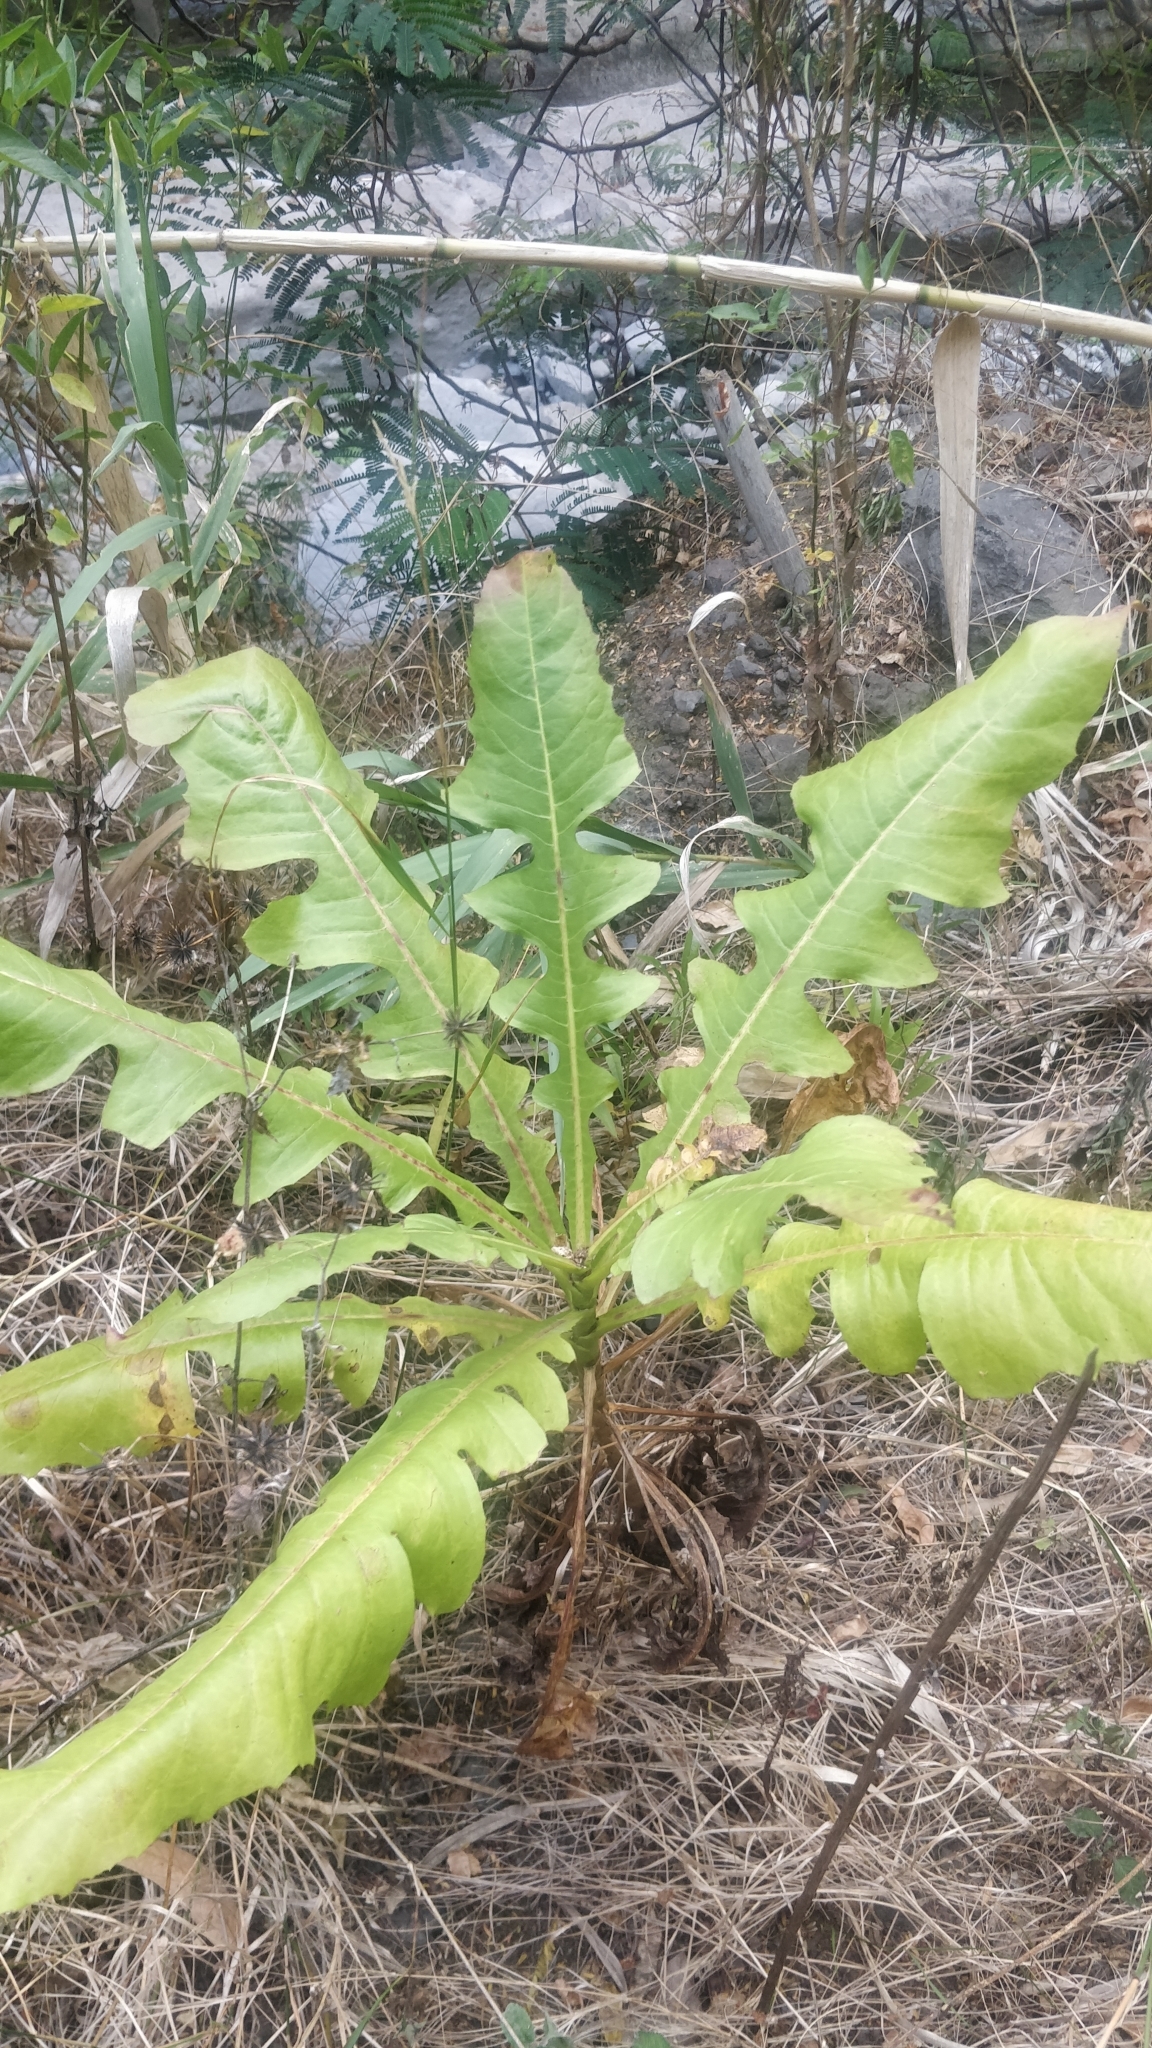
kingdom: Plantae
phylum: Tracheophyta
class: Magnoliopsida
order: Asterales
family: Asteraceae
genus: Sonchus
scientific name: Sonchus fruticosus
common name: Shrubby sow-thistle
